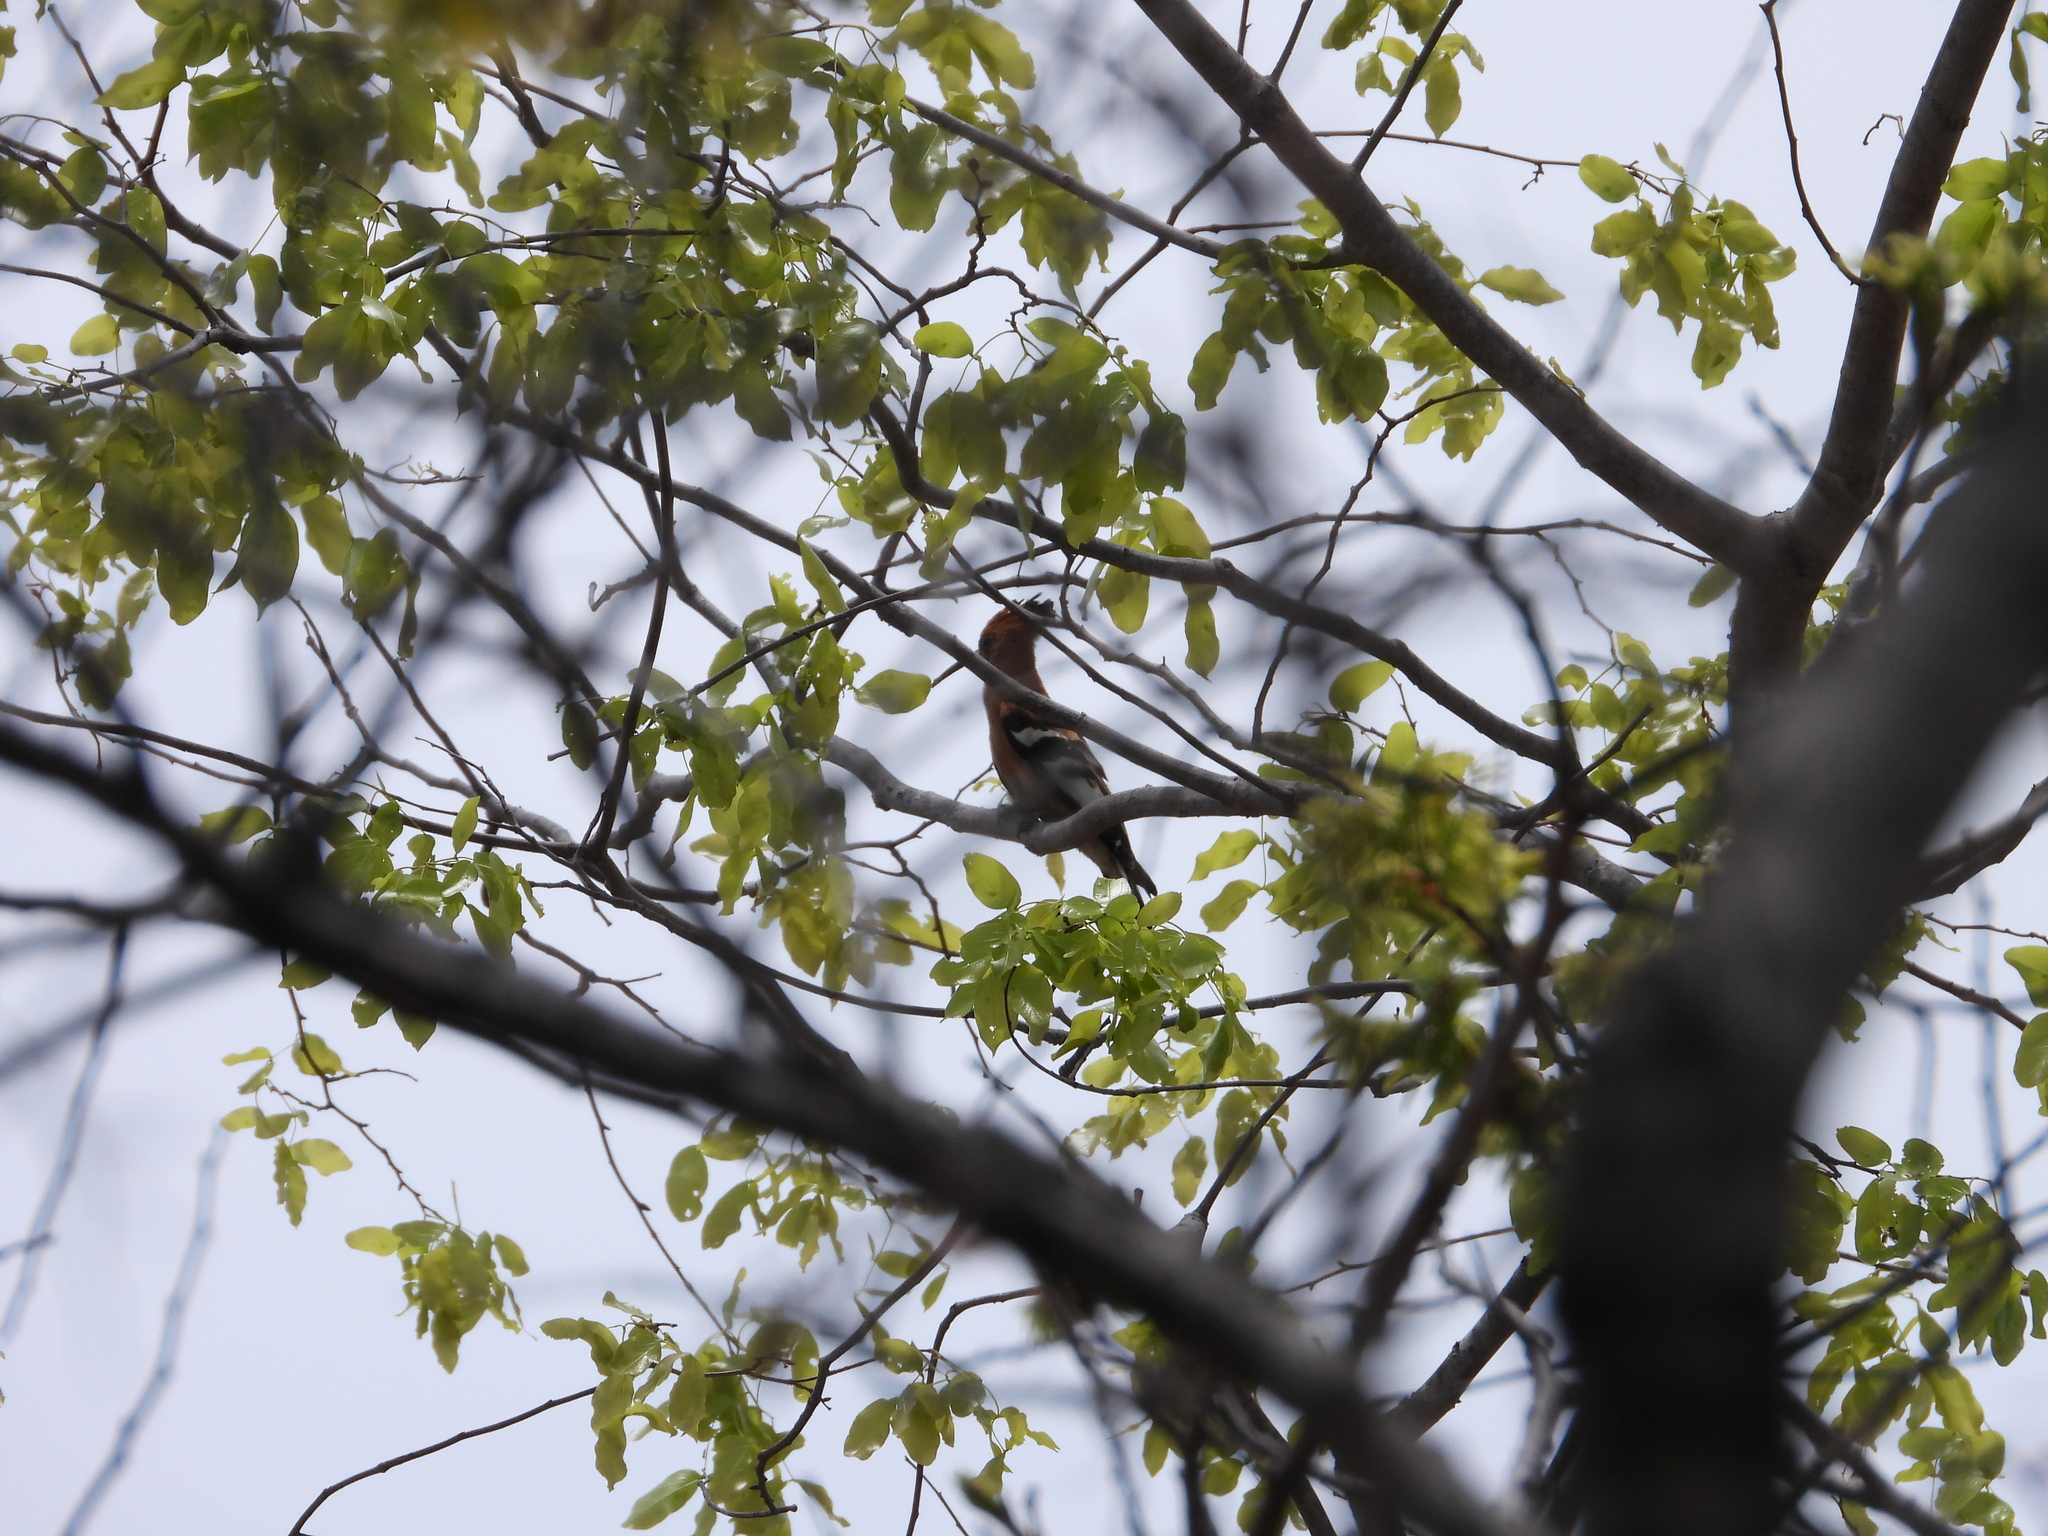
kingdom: Animalia
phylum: Chordata
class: Aves
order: Bucerotiformes
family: Upupidae
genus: Upupa
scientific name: Upupa africana
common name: African hoopoe
